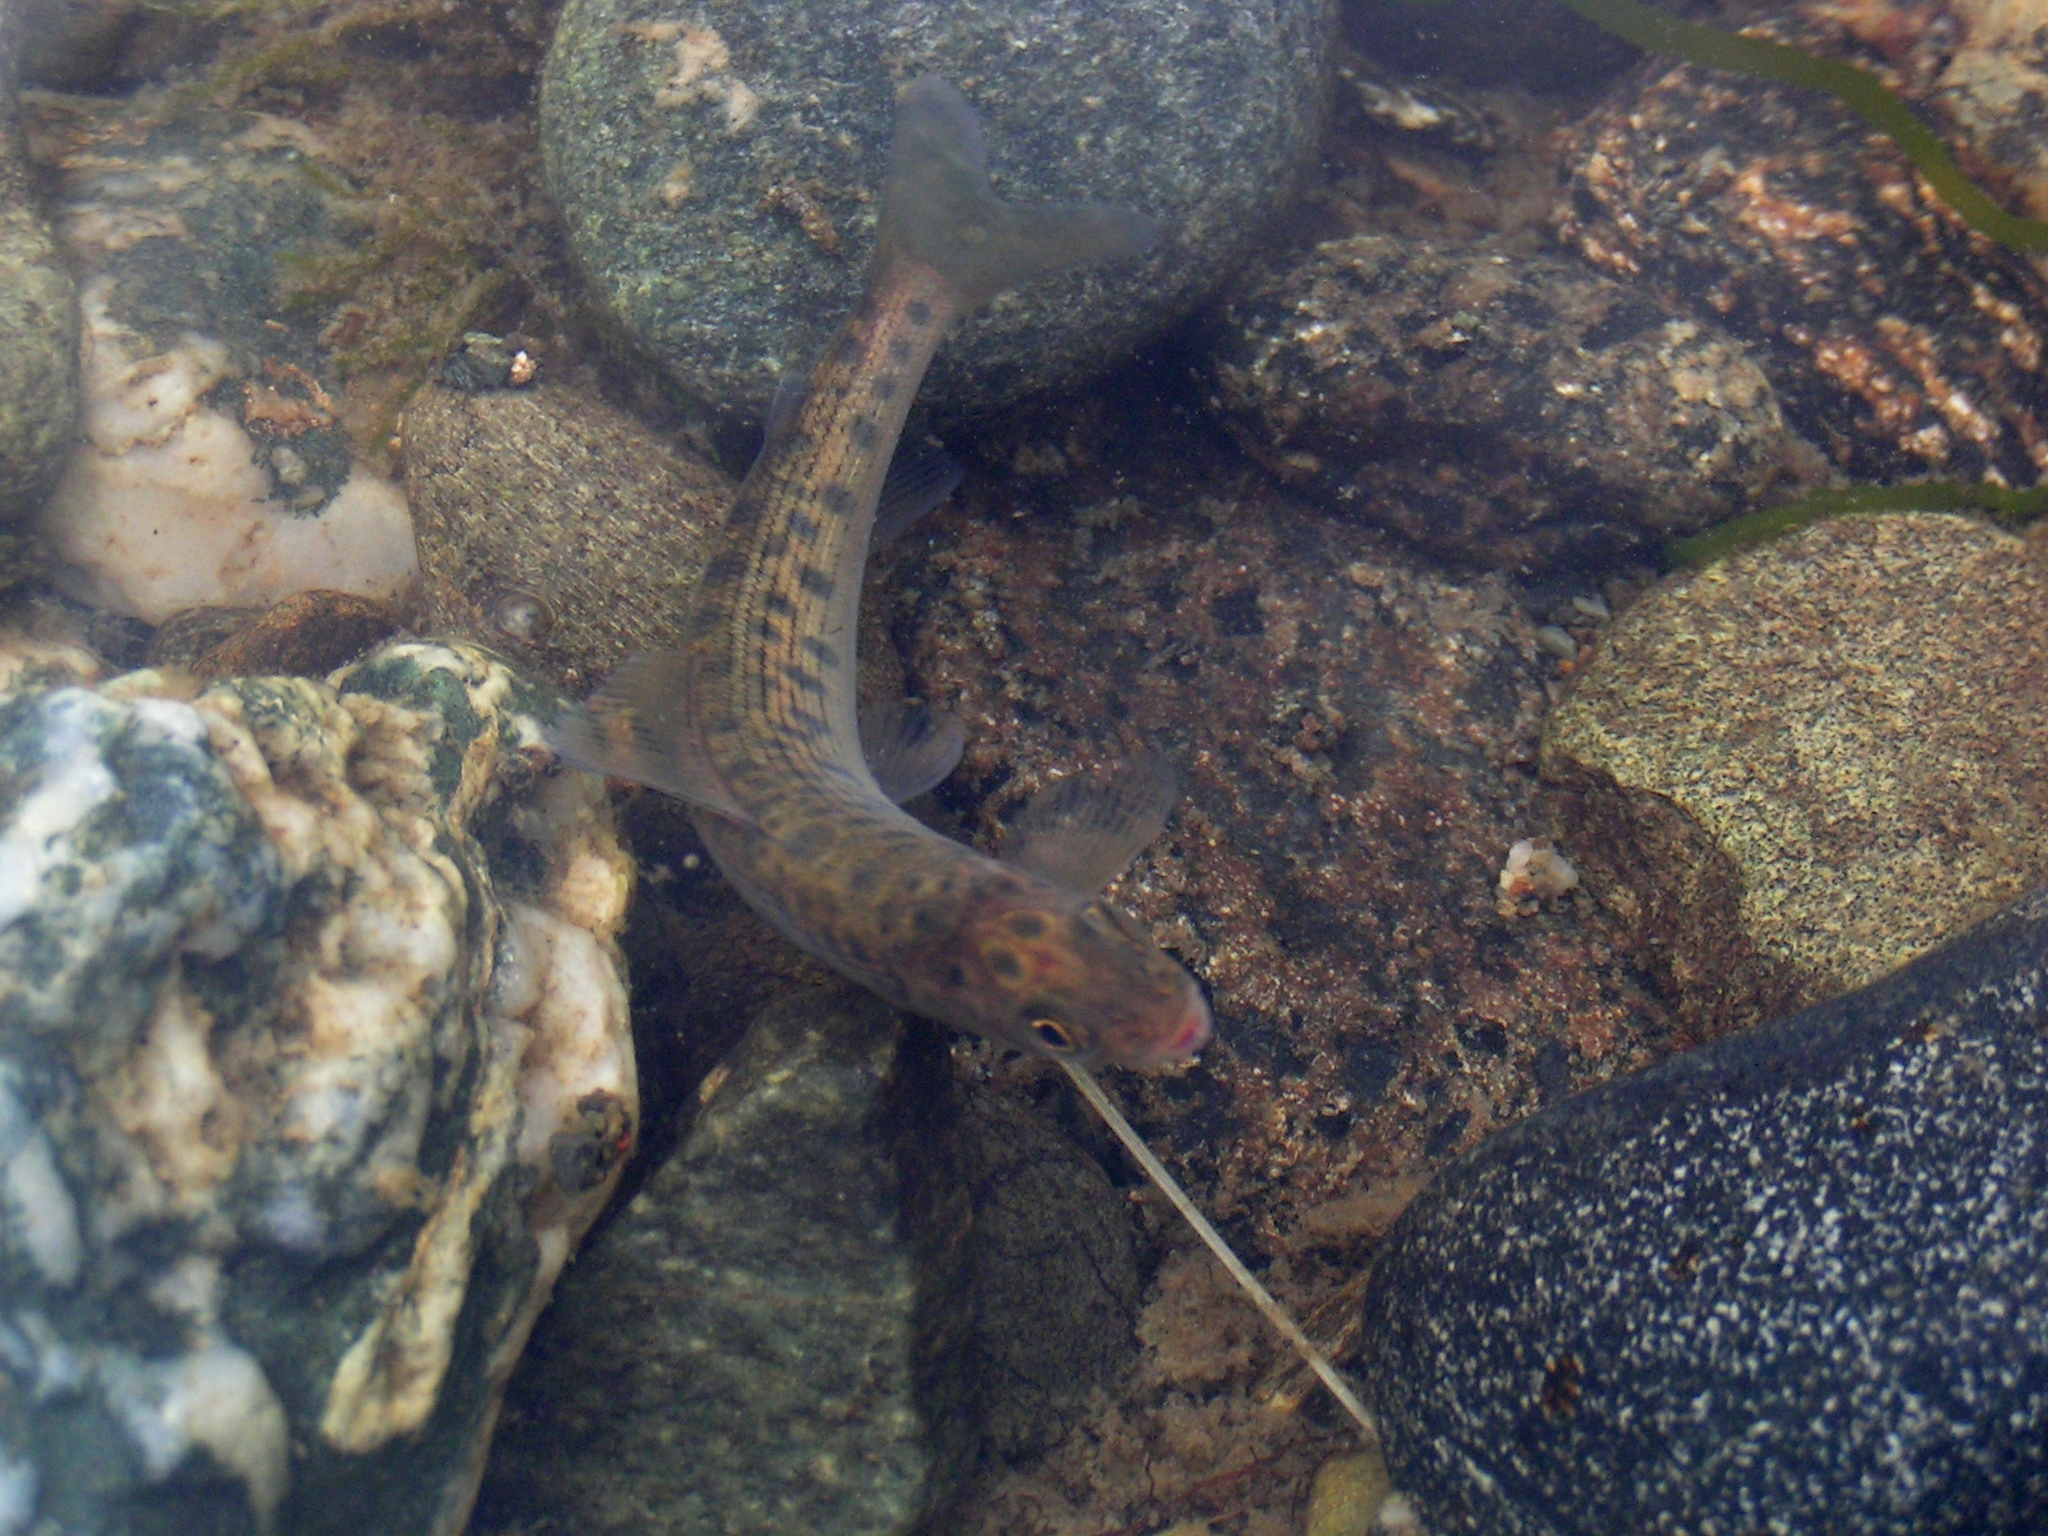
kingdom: Animalia
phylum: Chordata
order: Salmoniformes
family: Salmonidae
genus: Thymallus
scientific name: Thymallus arcticus
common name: Arctic grayling
